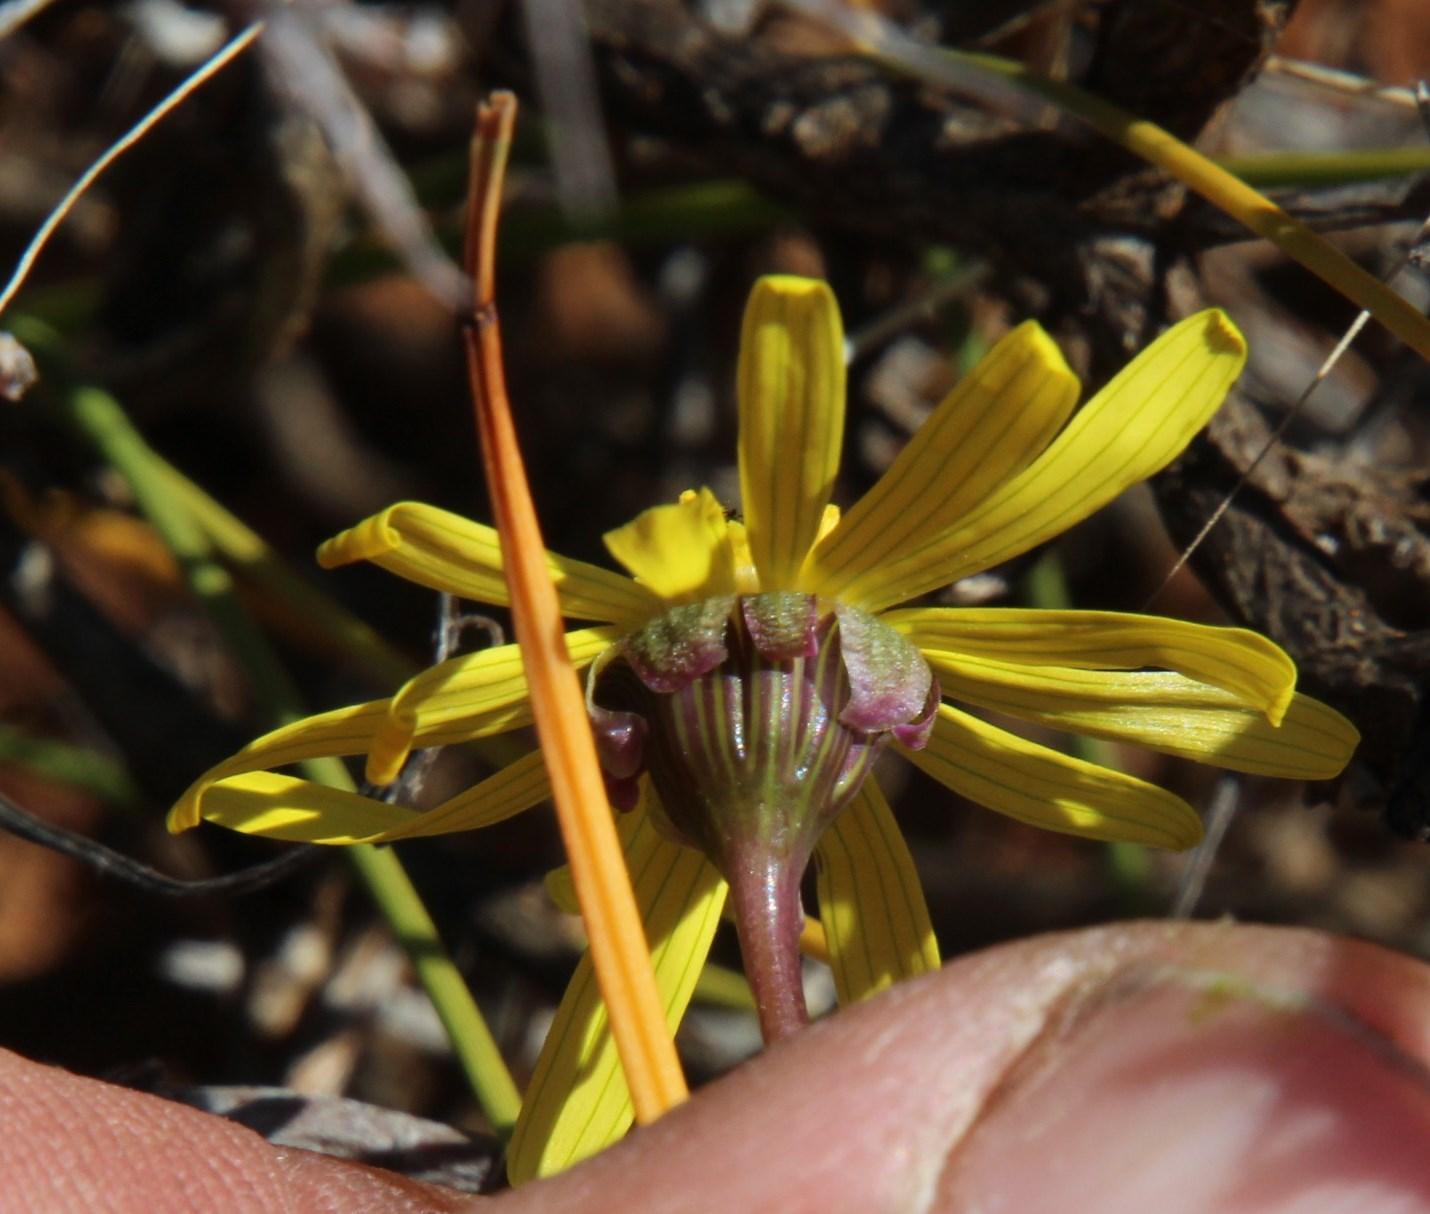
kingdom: Plantae
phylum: Tracheophyta
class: Magnoliopsida
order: Asterales
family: Asteraceae
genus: Crassothonna
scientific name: Crassothonna sedifolia
